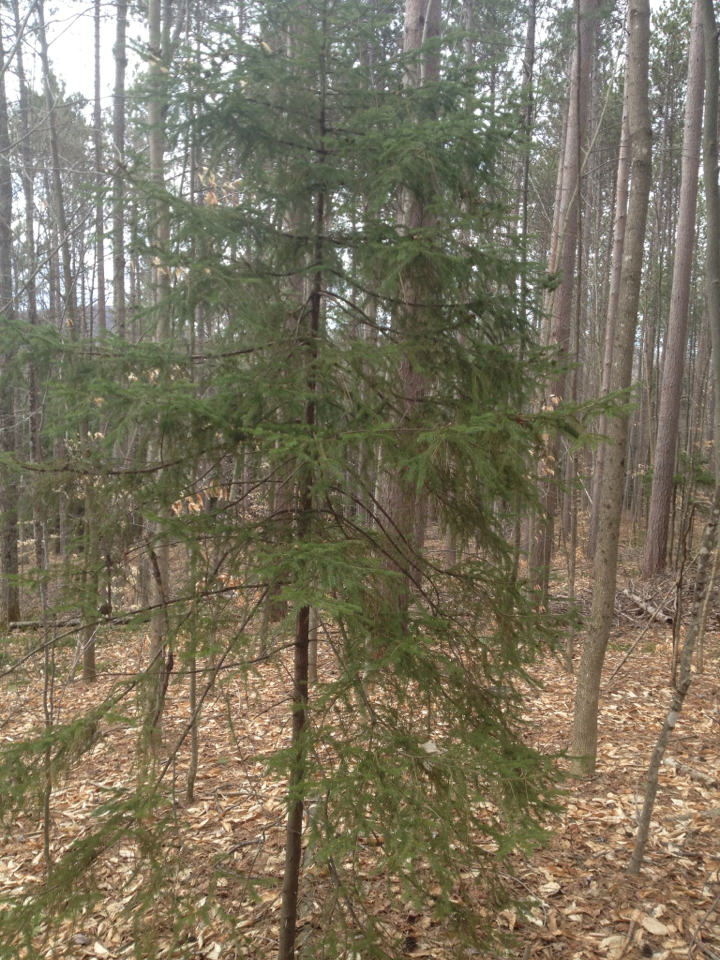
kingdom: Plantae
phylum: Tracheophyta
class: Pinopsida
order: Pinales
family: Pinaceae
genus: Picea
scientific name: Picea rubens
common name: Red spruce
